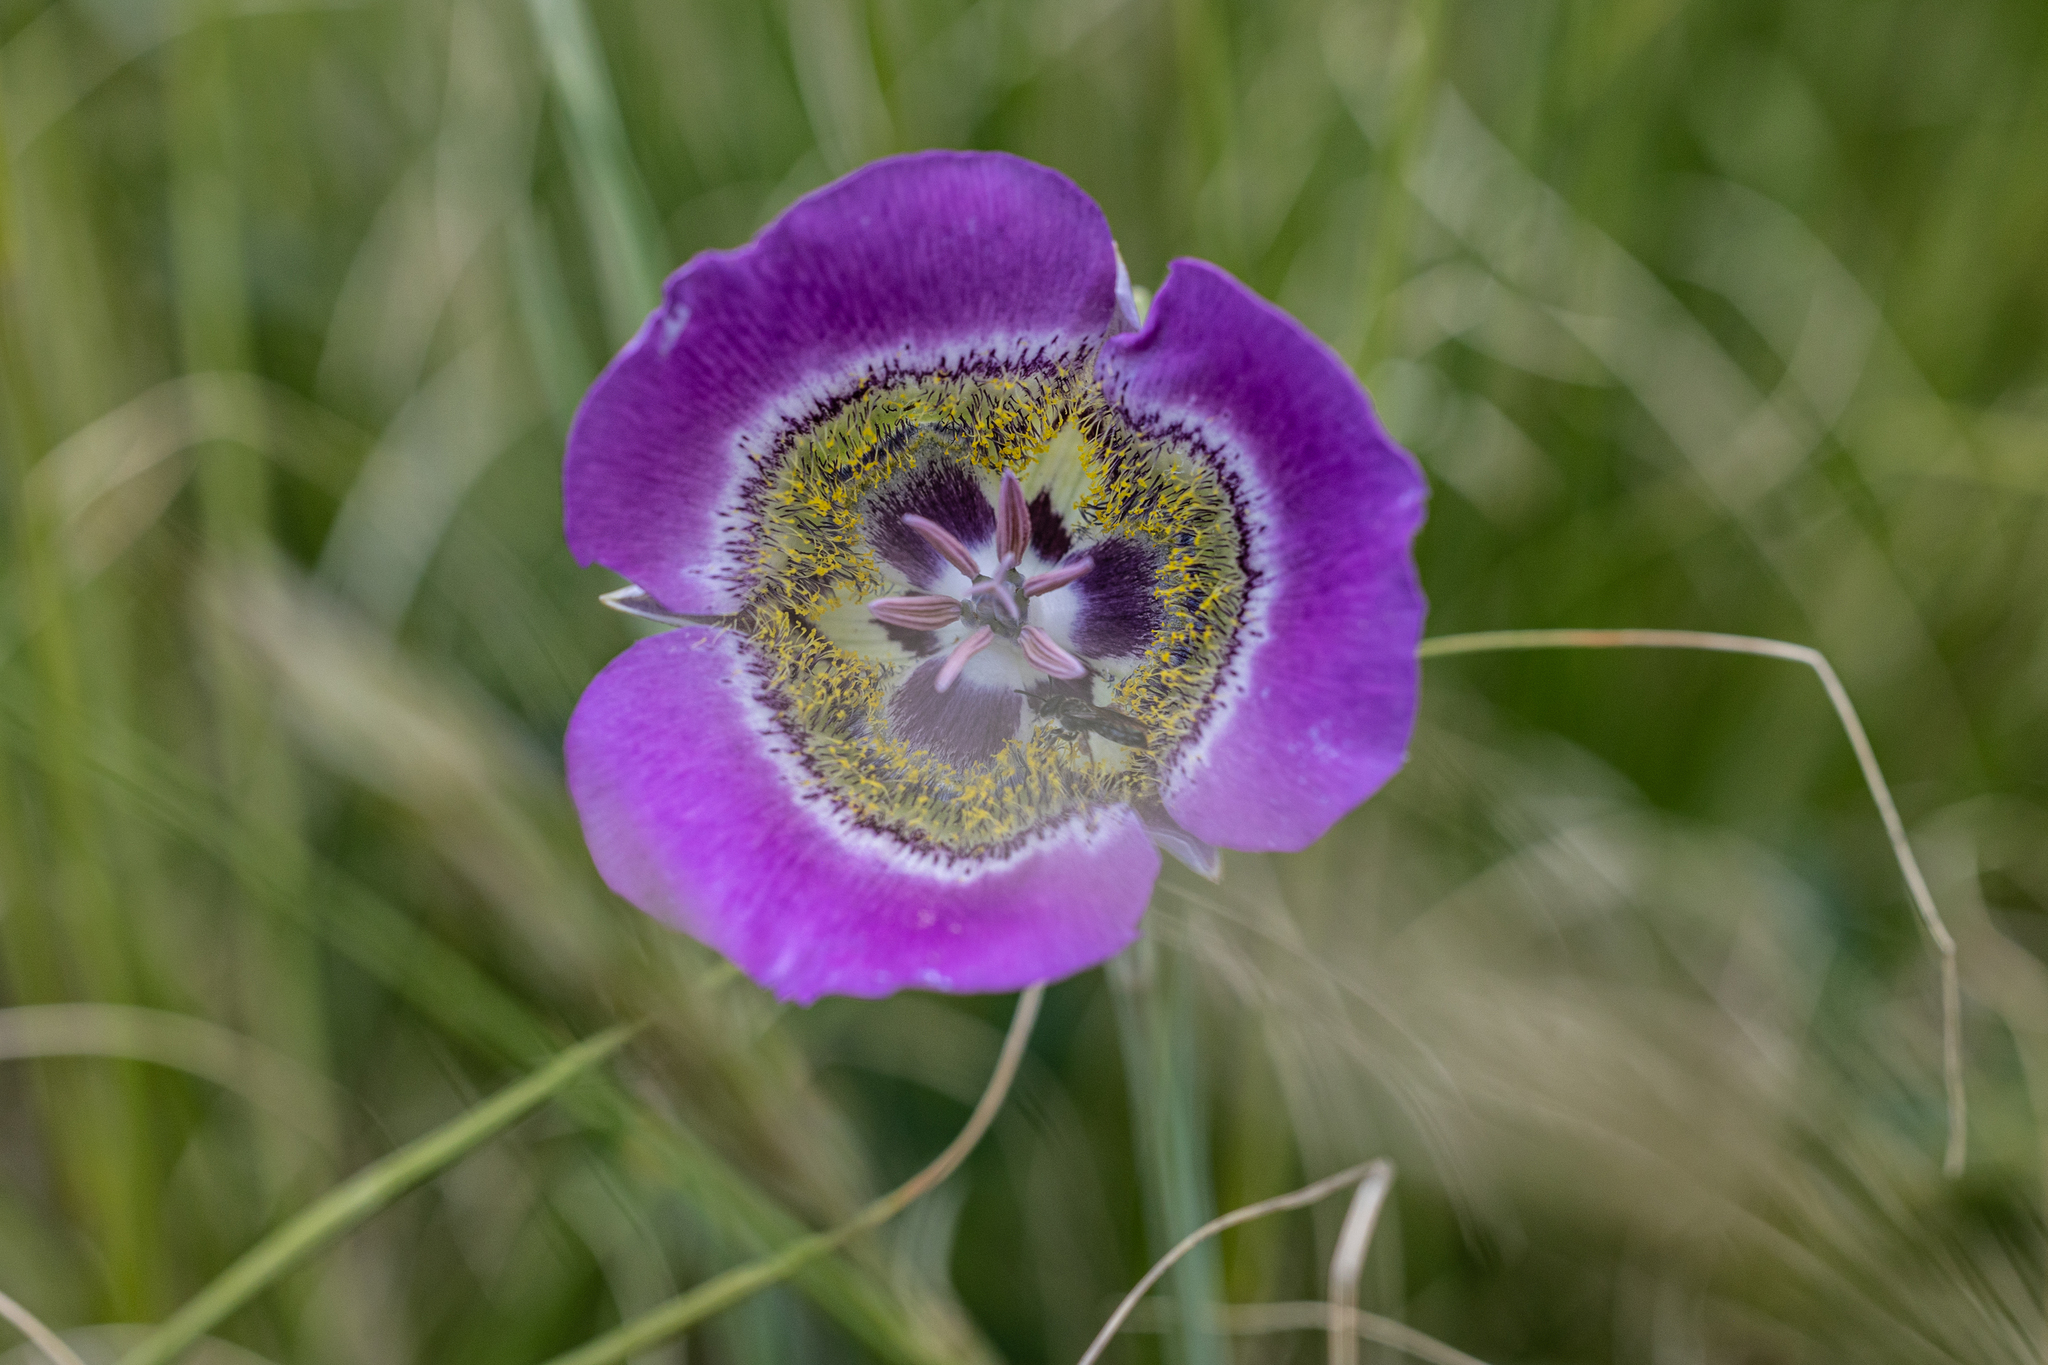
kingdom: Plantae
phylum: Tracheophyta
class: Liliopsida
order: Liliales
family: Liliaceae
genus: Calochortus
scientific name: Calochortus gunnisonii
